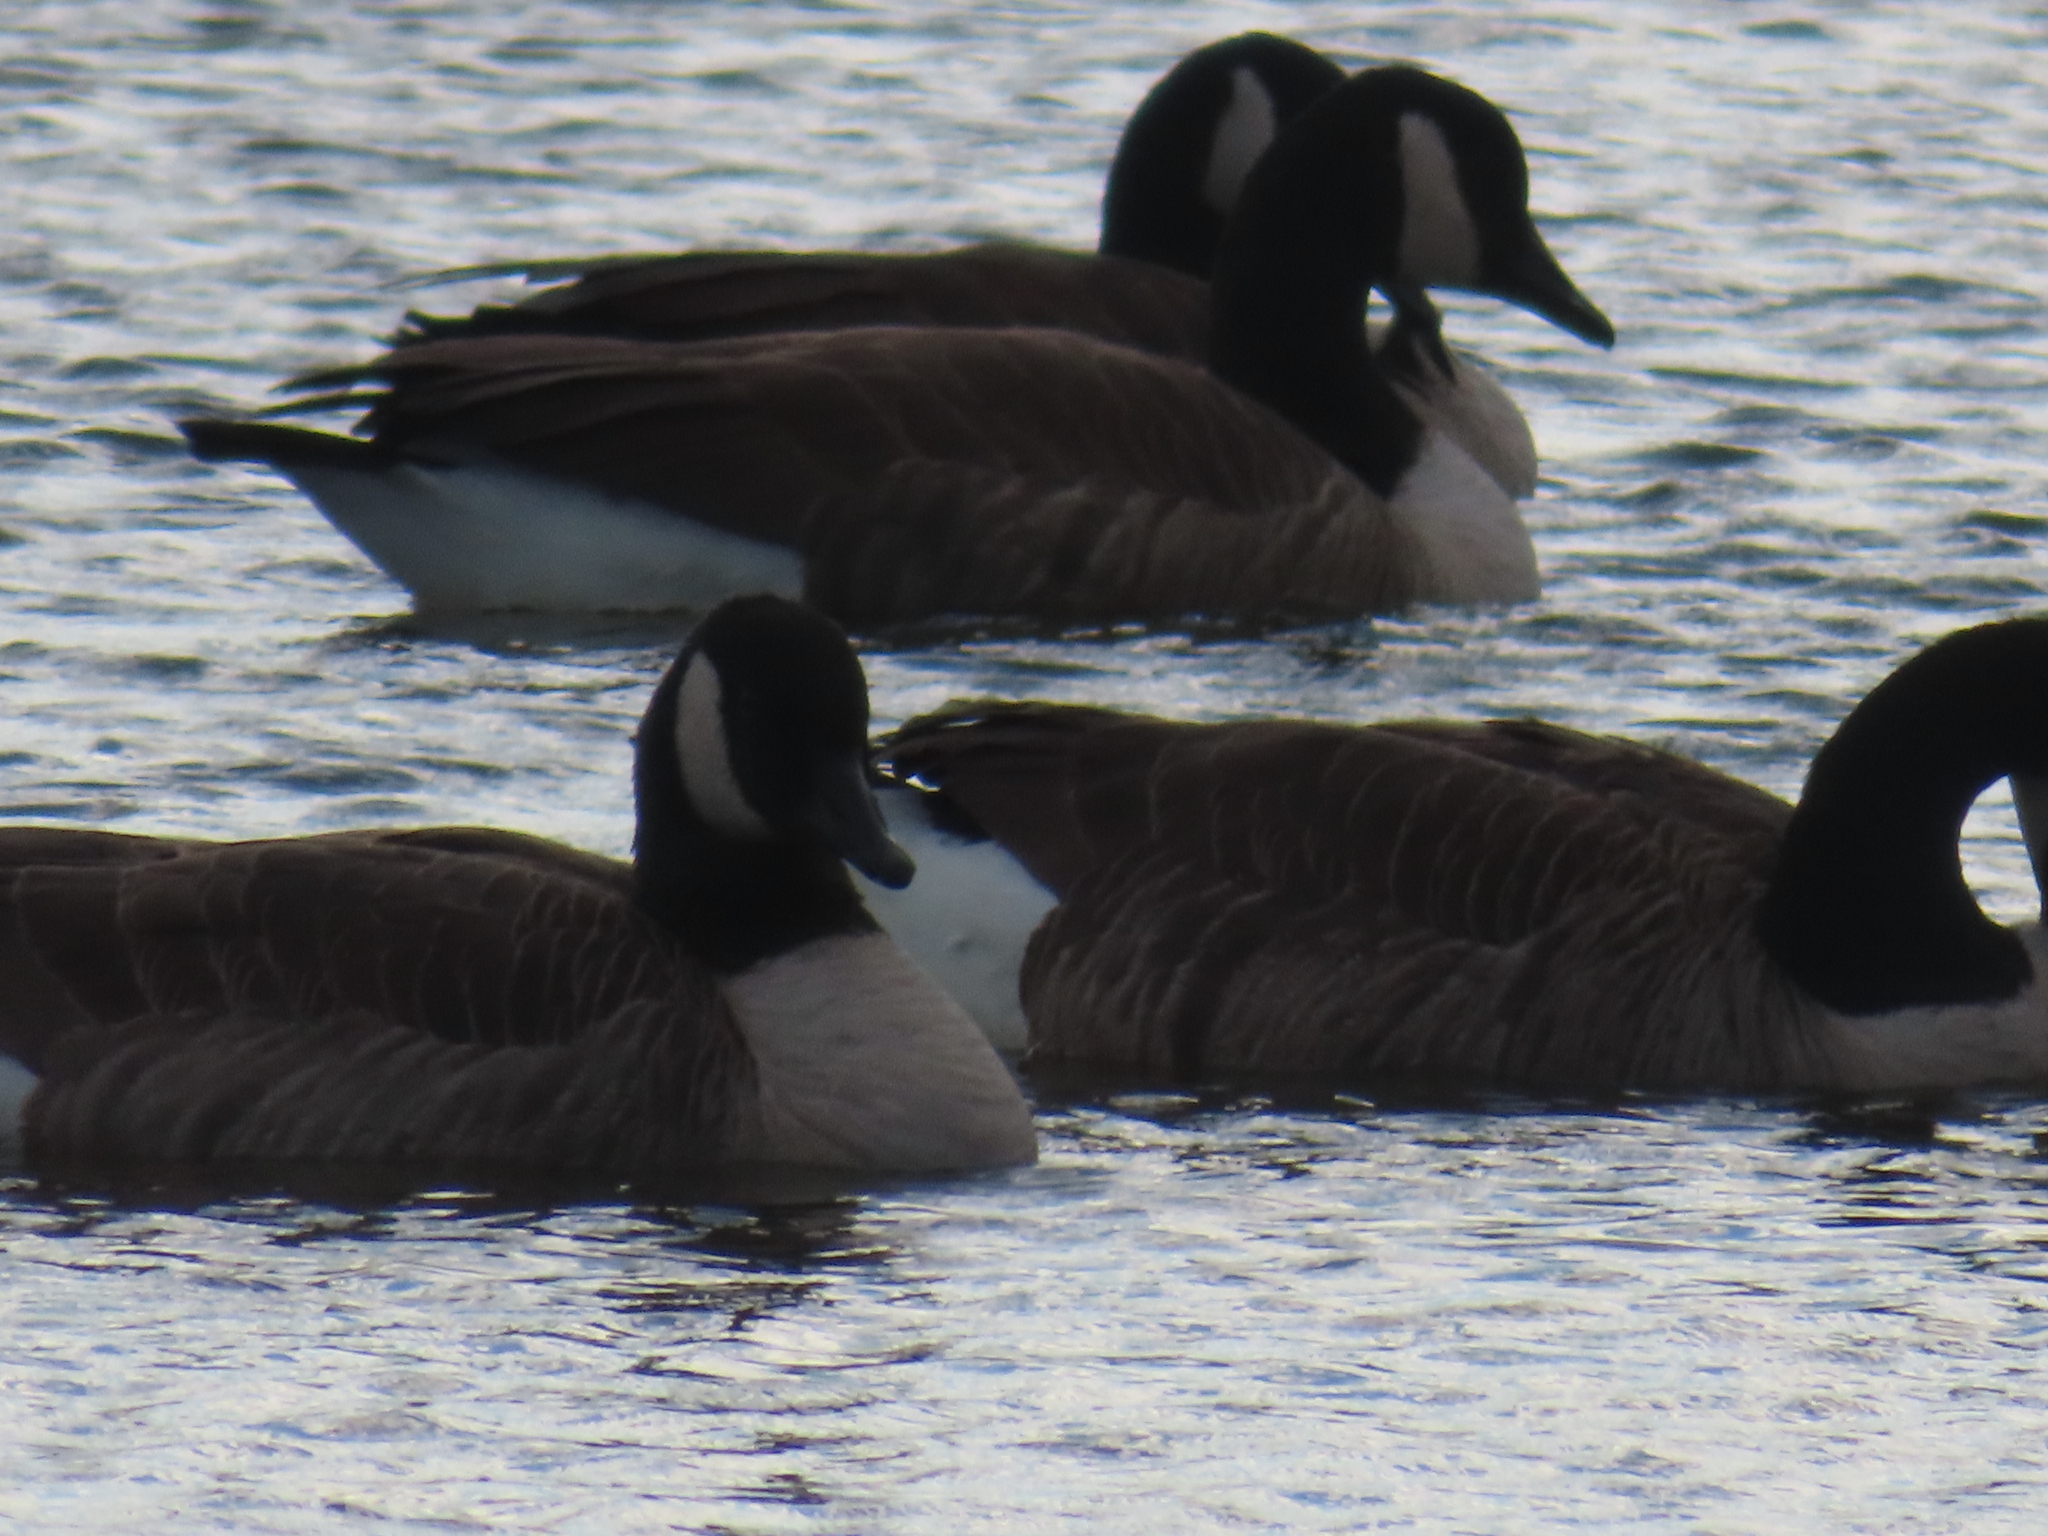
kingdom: Animalia
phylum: Chordata
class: Aves
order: Anseriformes
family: Anatidae
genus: Branta
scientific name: Branta canadensis
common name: Canada goose
